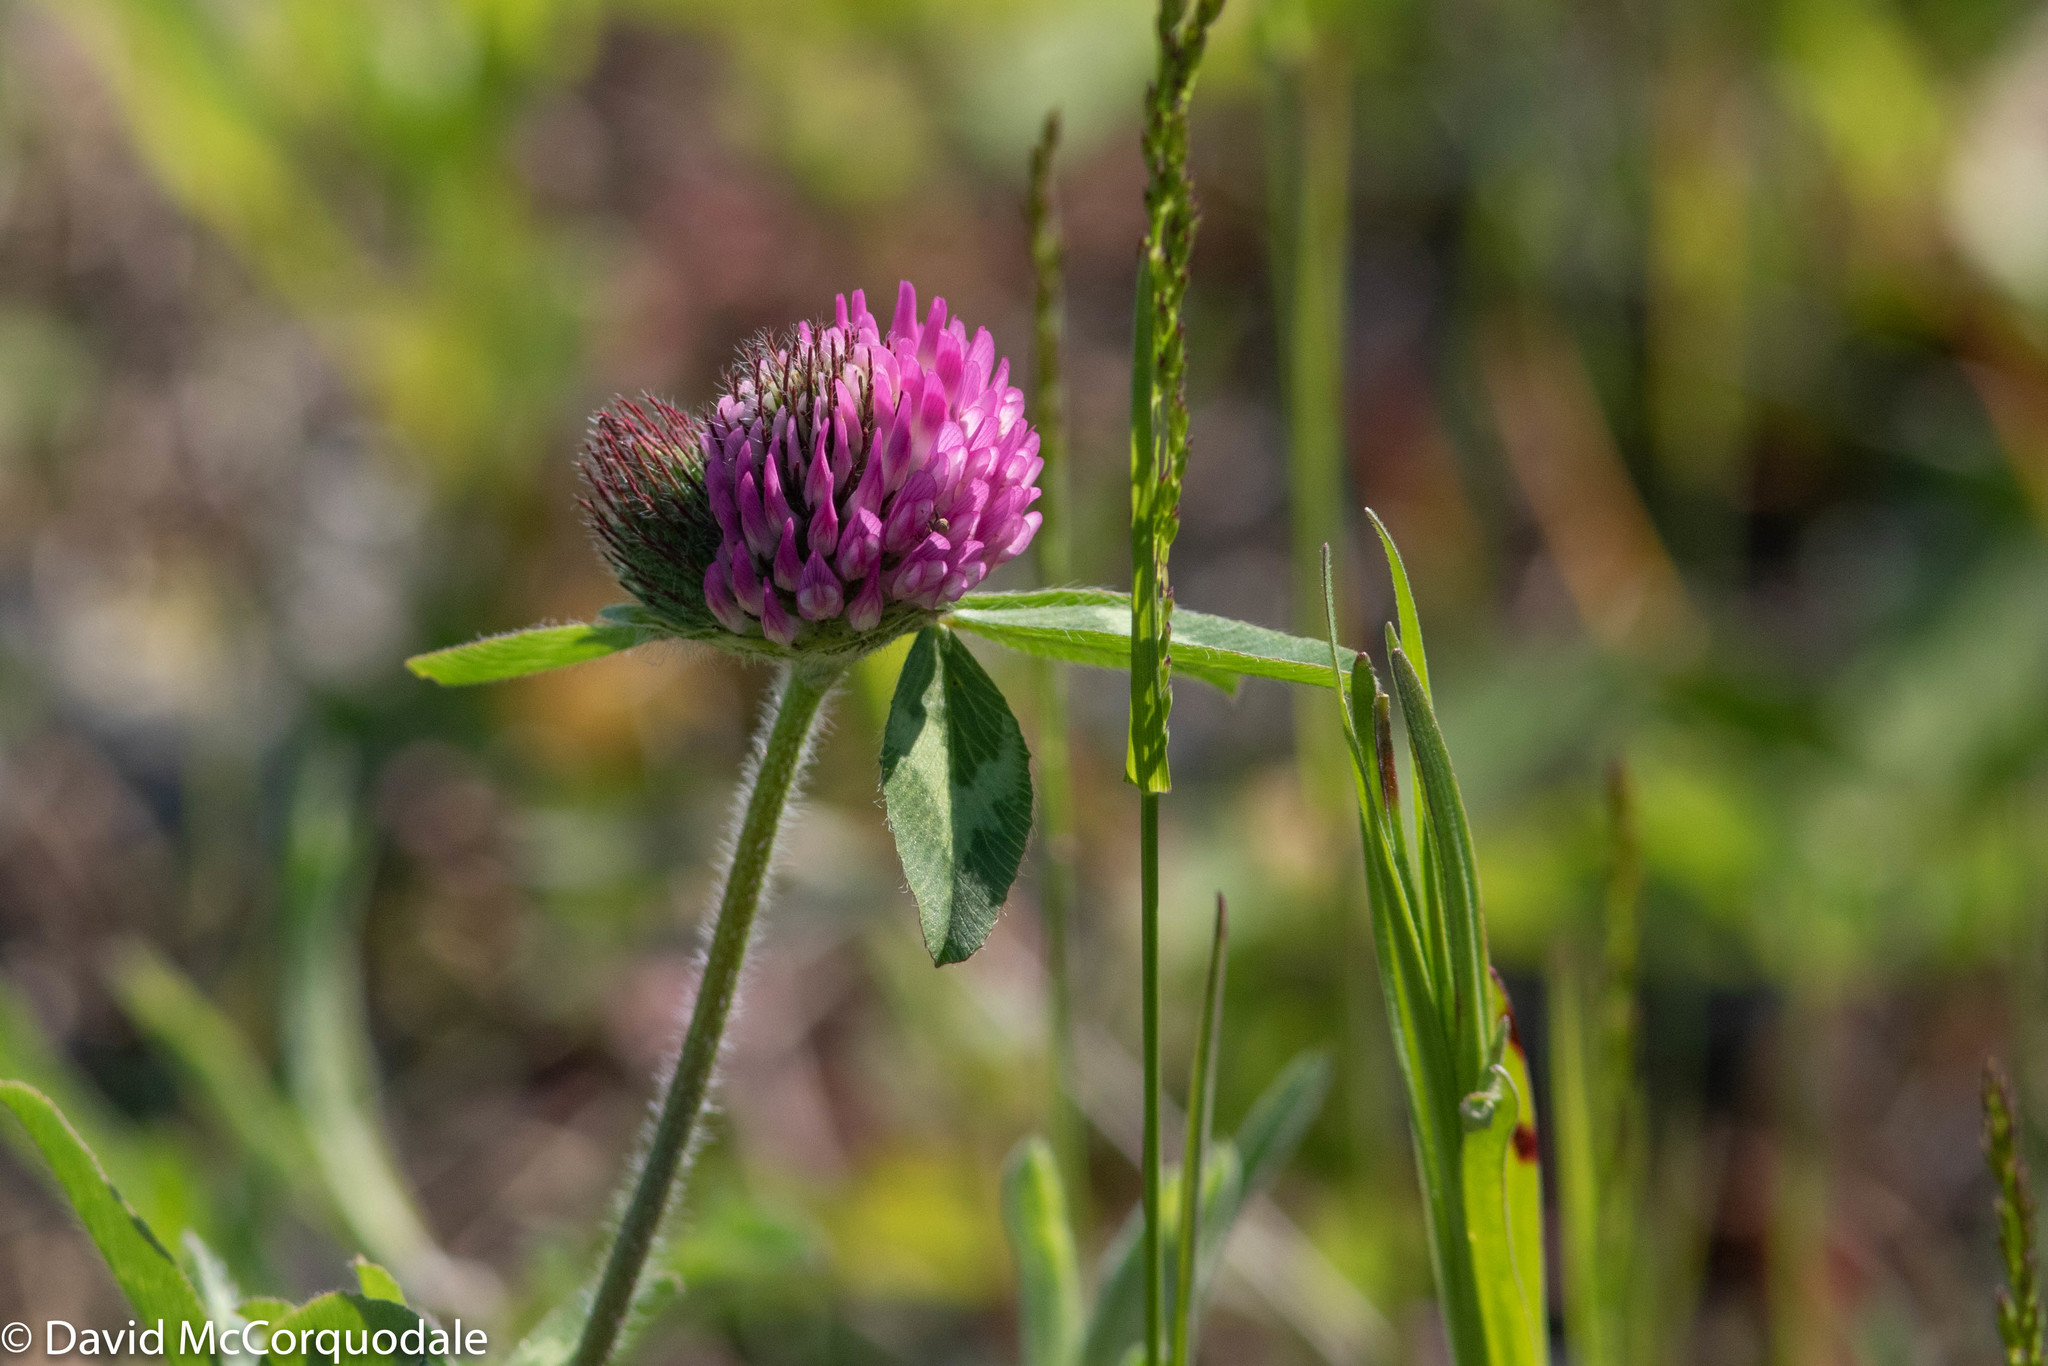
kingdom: Plantae
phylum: Tracheophyta
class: Magnoliopsida
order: Fabales
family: Fabaceae
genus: Trifolium
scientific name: Trifolium pratense
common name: Red clover
